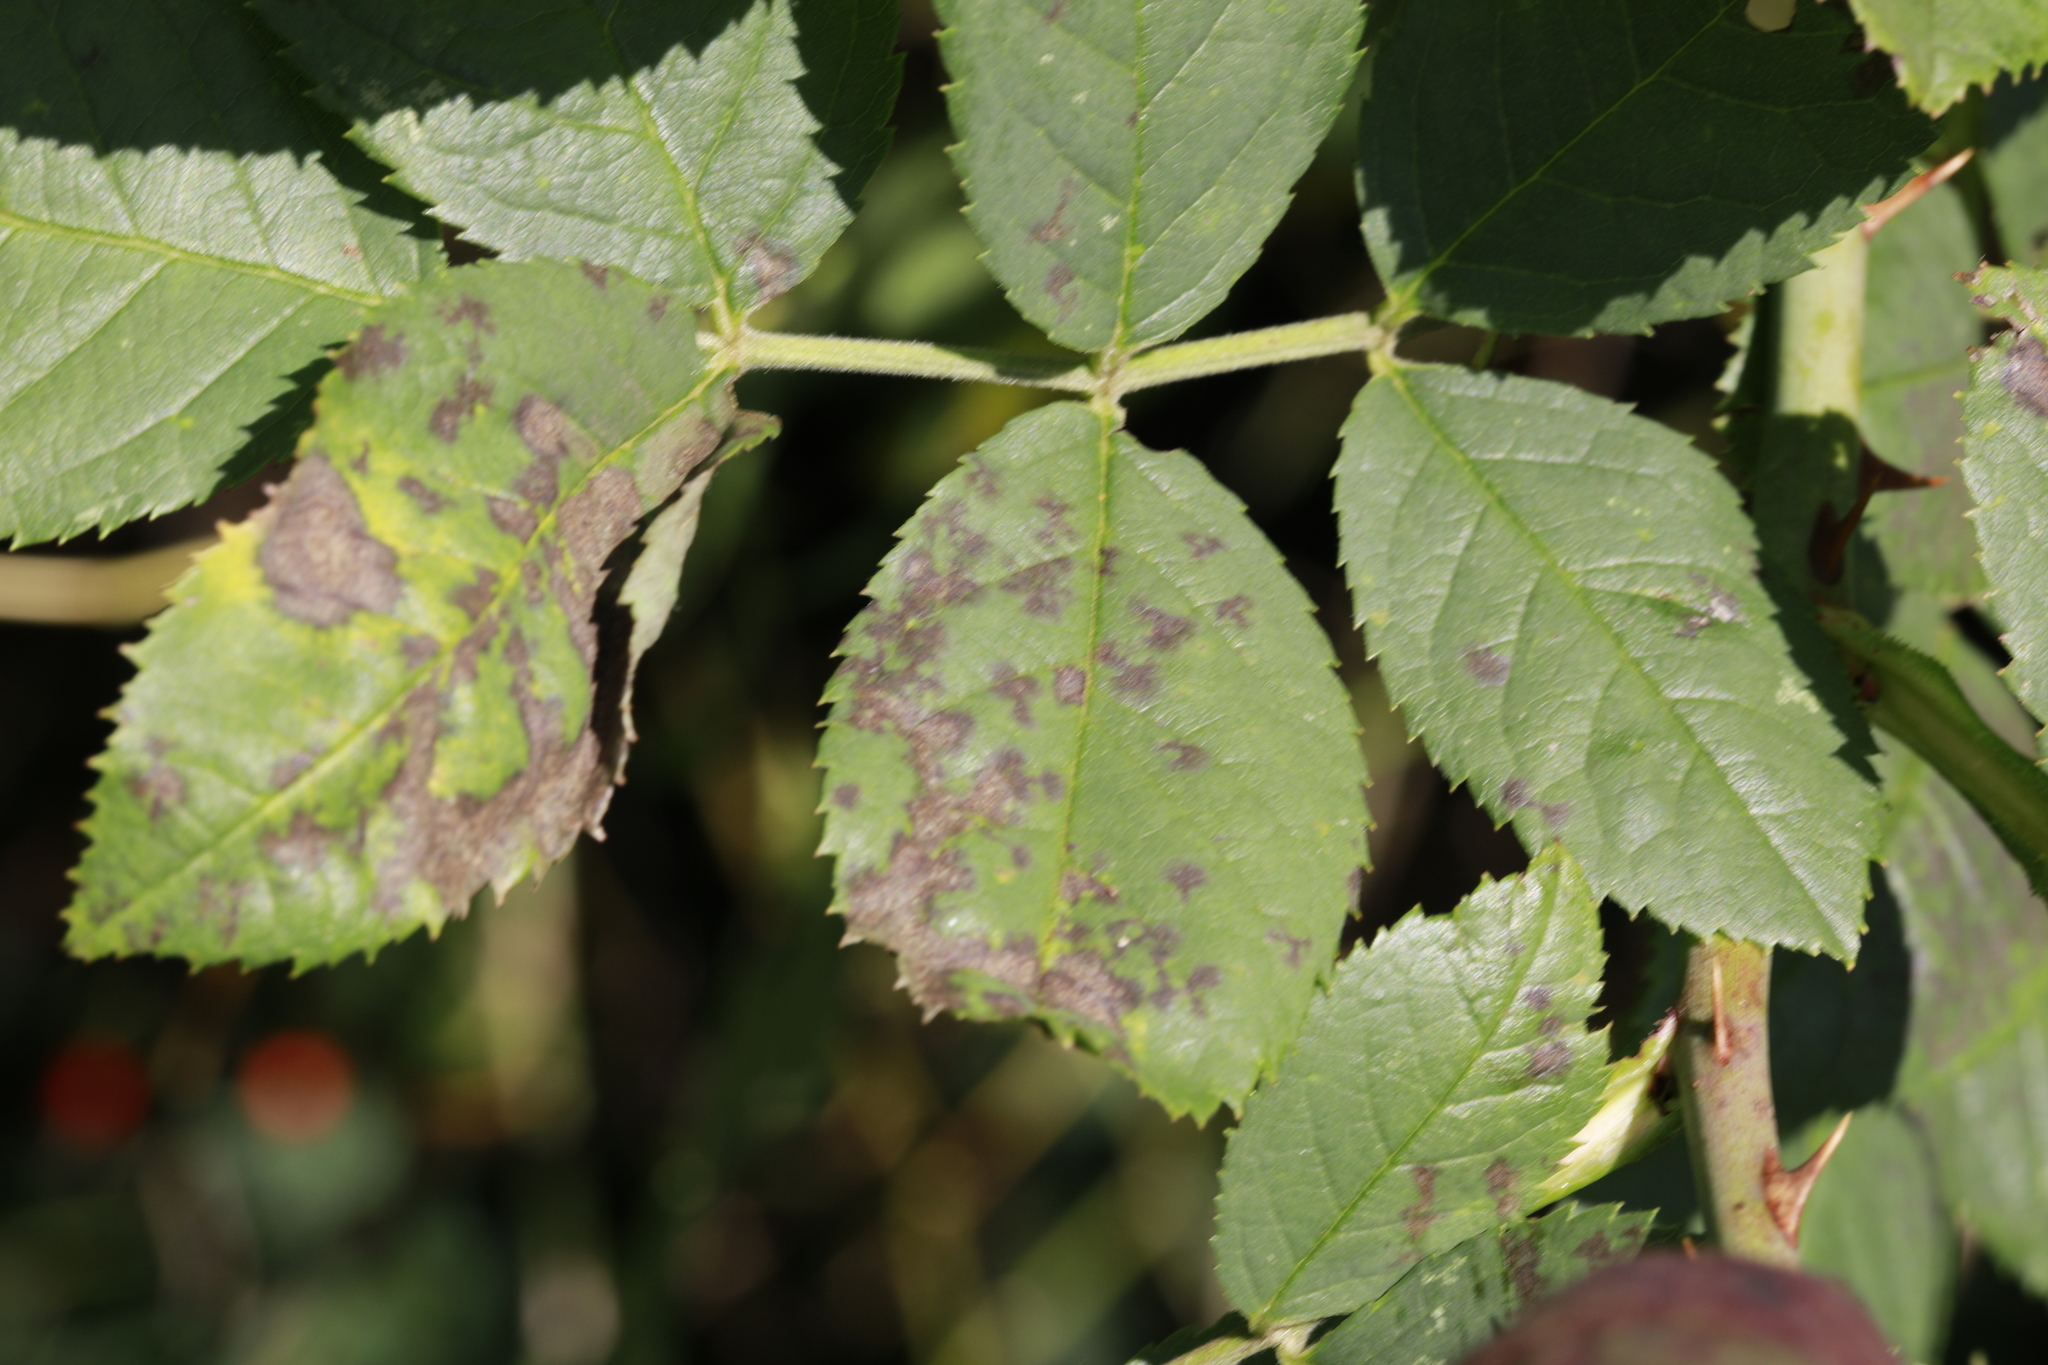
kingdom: Fungi
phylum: Ascomycota
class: Leotiomycetes
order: Helotiales
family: Drepanopezizaceae
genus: Diplocarpon
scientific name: Diplocarpon rosae
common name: Rose black-spot
